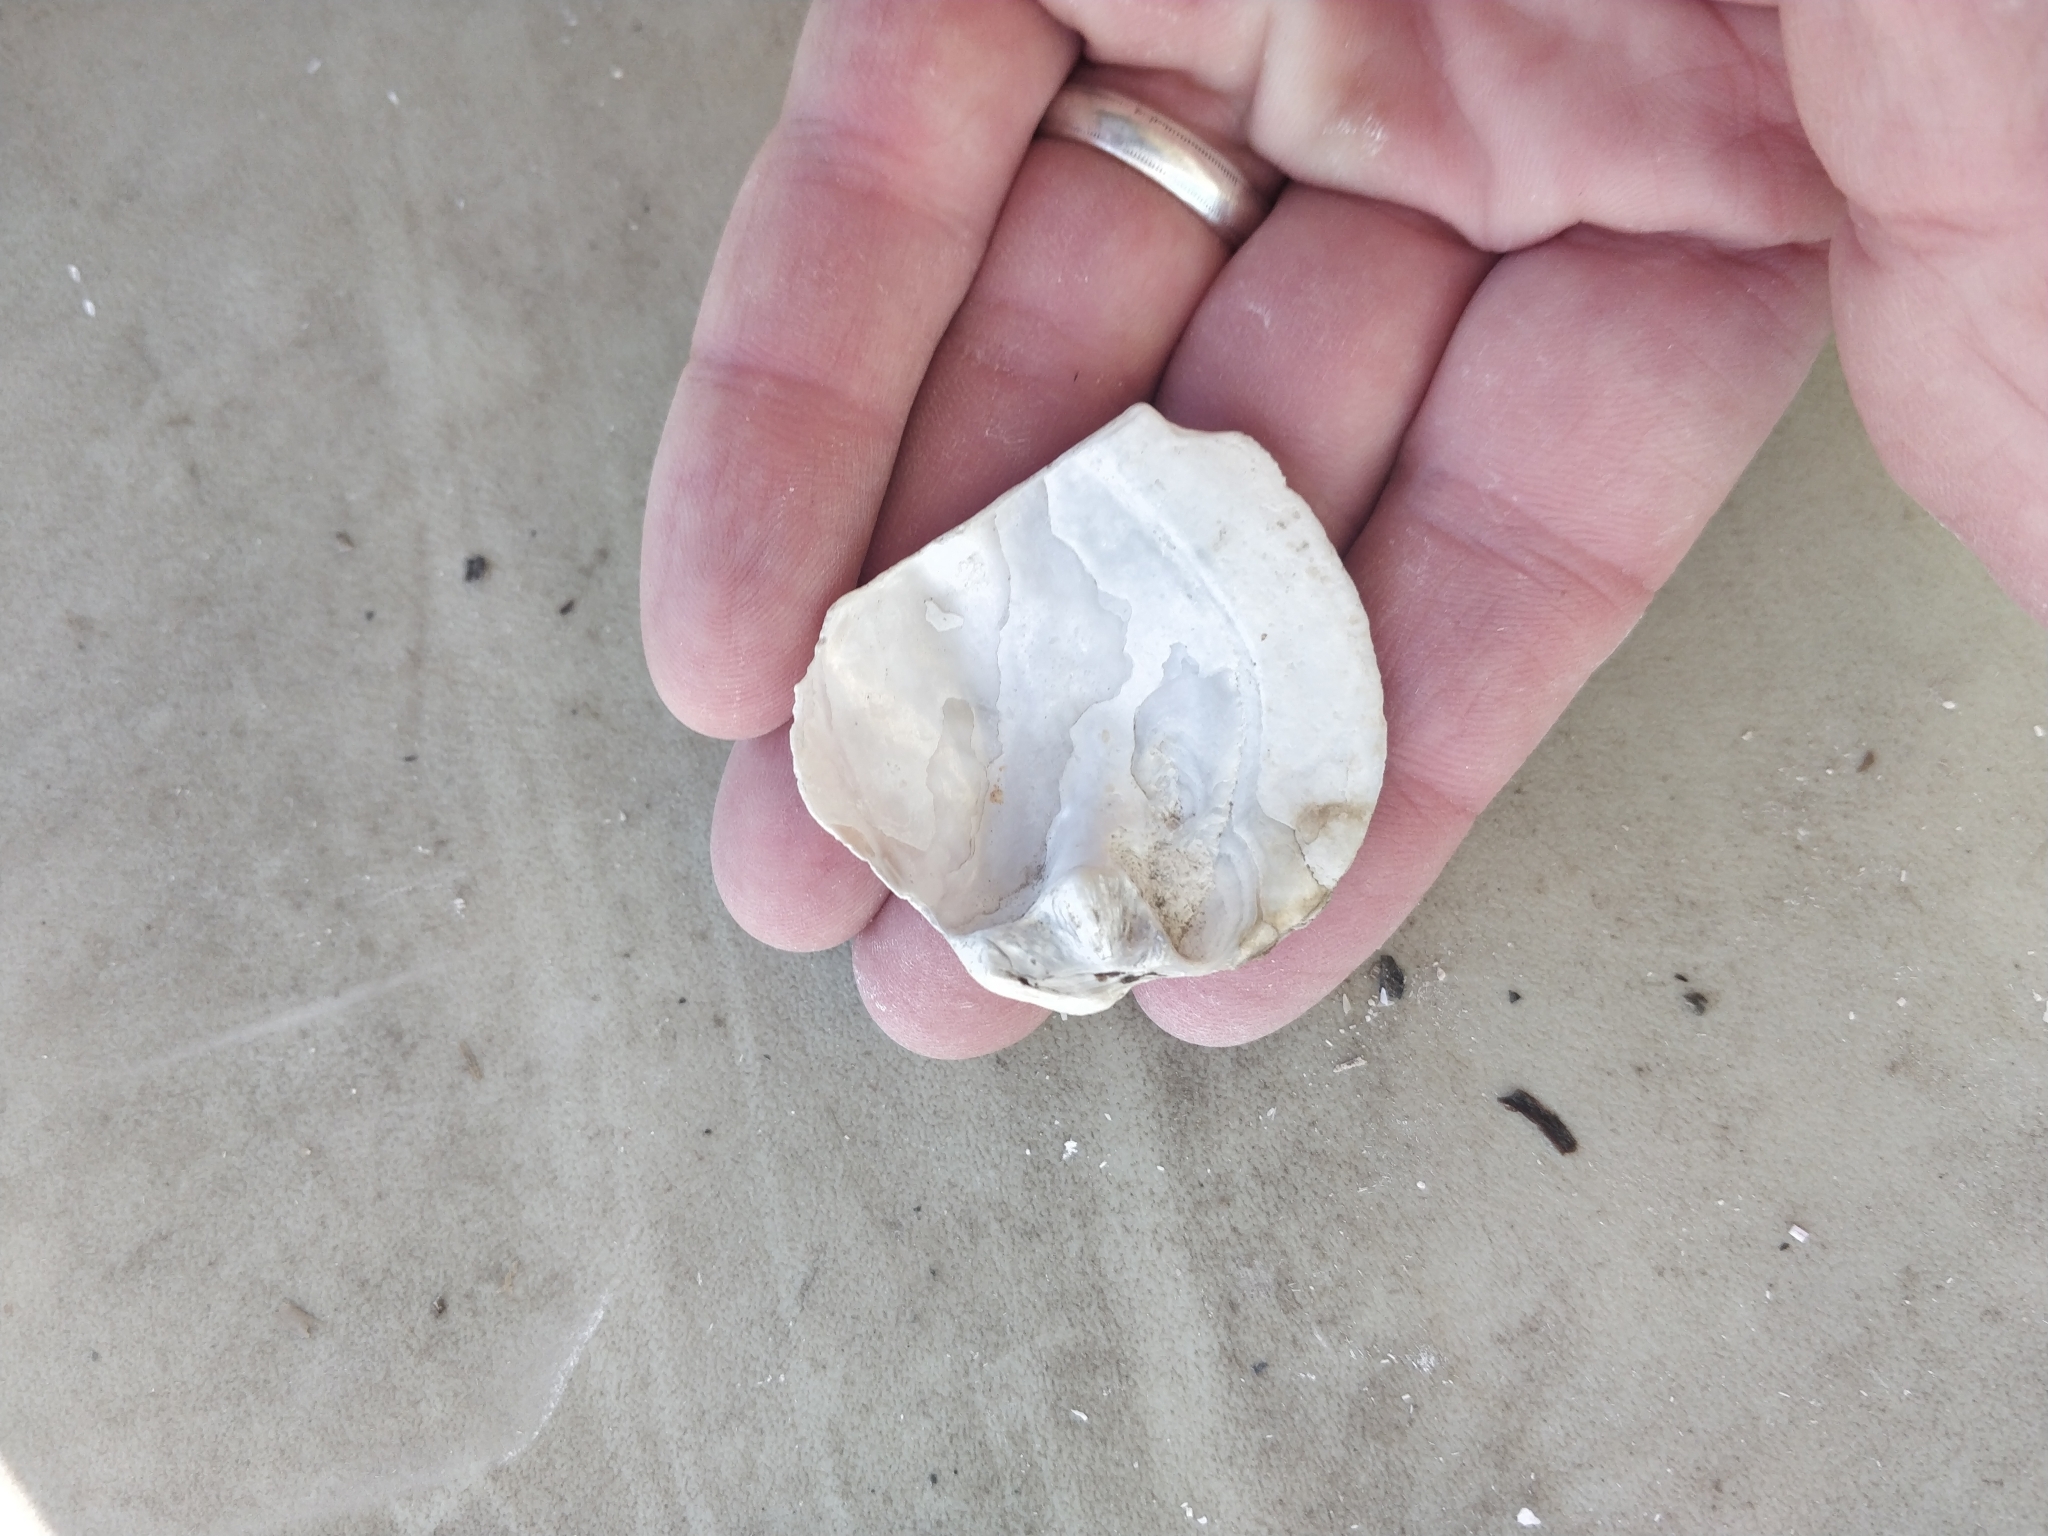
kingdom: Animalia
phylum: Mollusca
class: Bivalvia
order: Unionida
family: Unionidae
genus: Amblema
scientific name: Amblema plicata
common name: Threeridge
